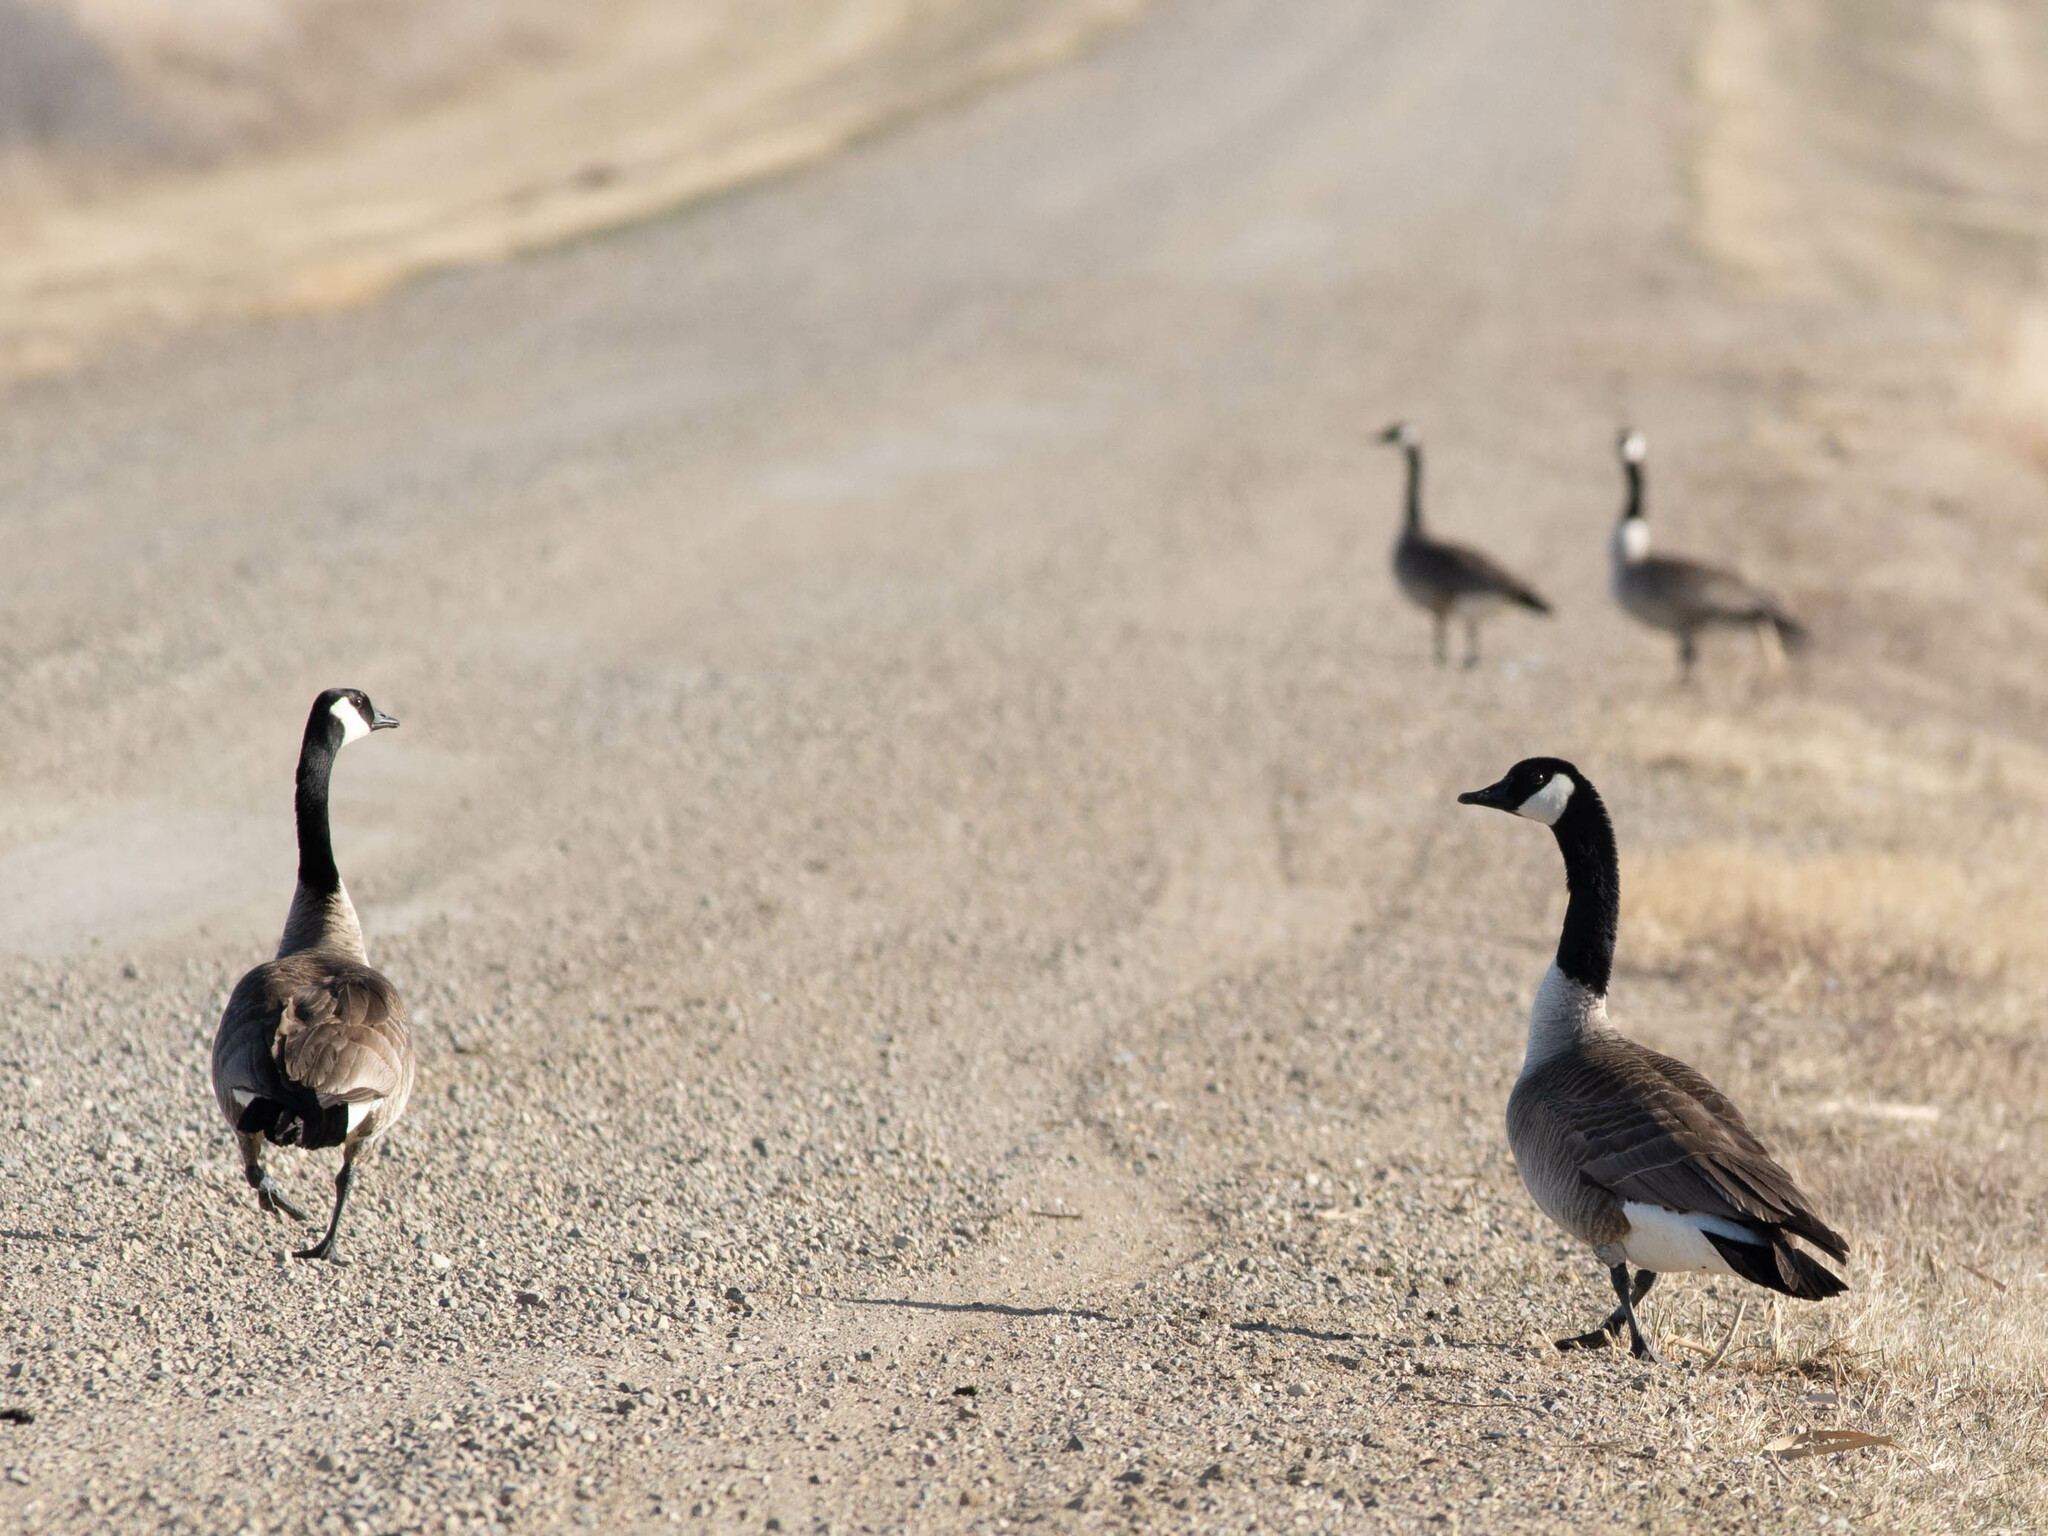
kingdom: Animalia
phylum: Chordata
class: Aves
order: Anseriformes
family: Anatidae
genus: Branta
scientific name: Branta canadensis
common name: Canada goose
